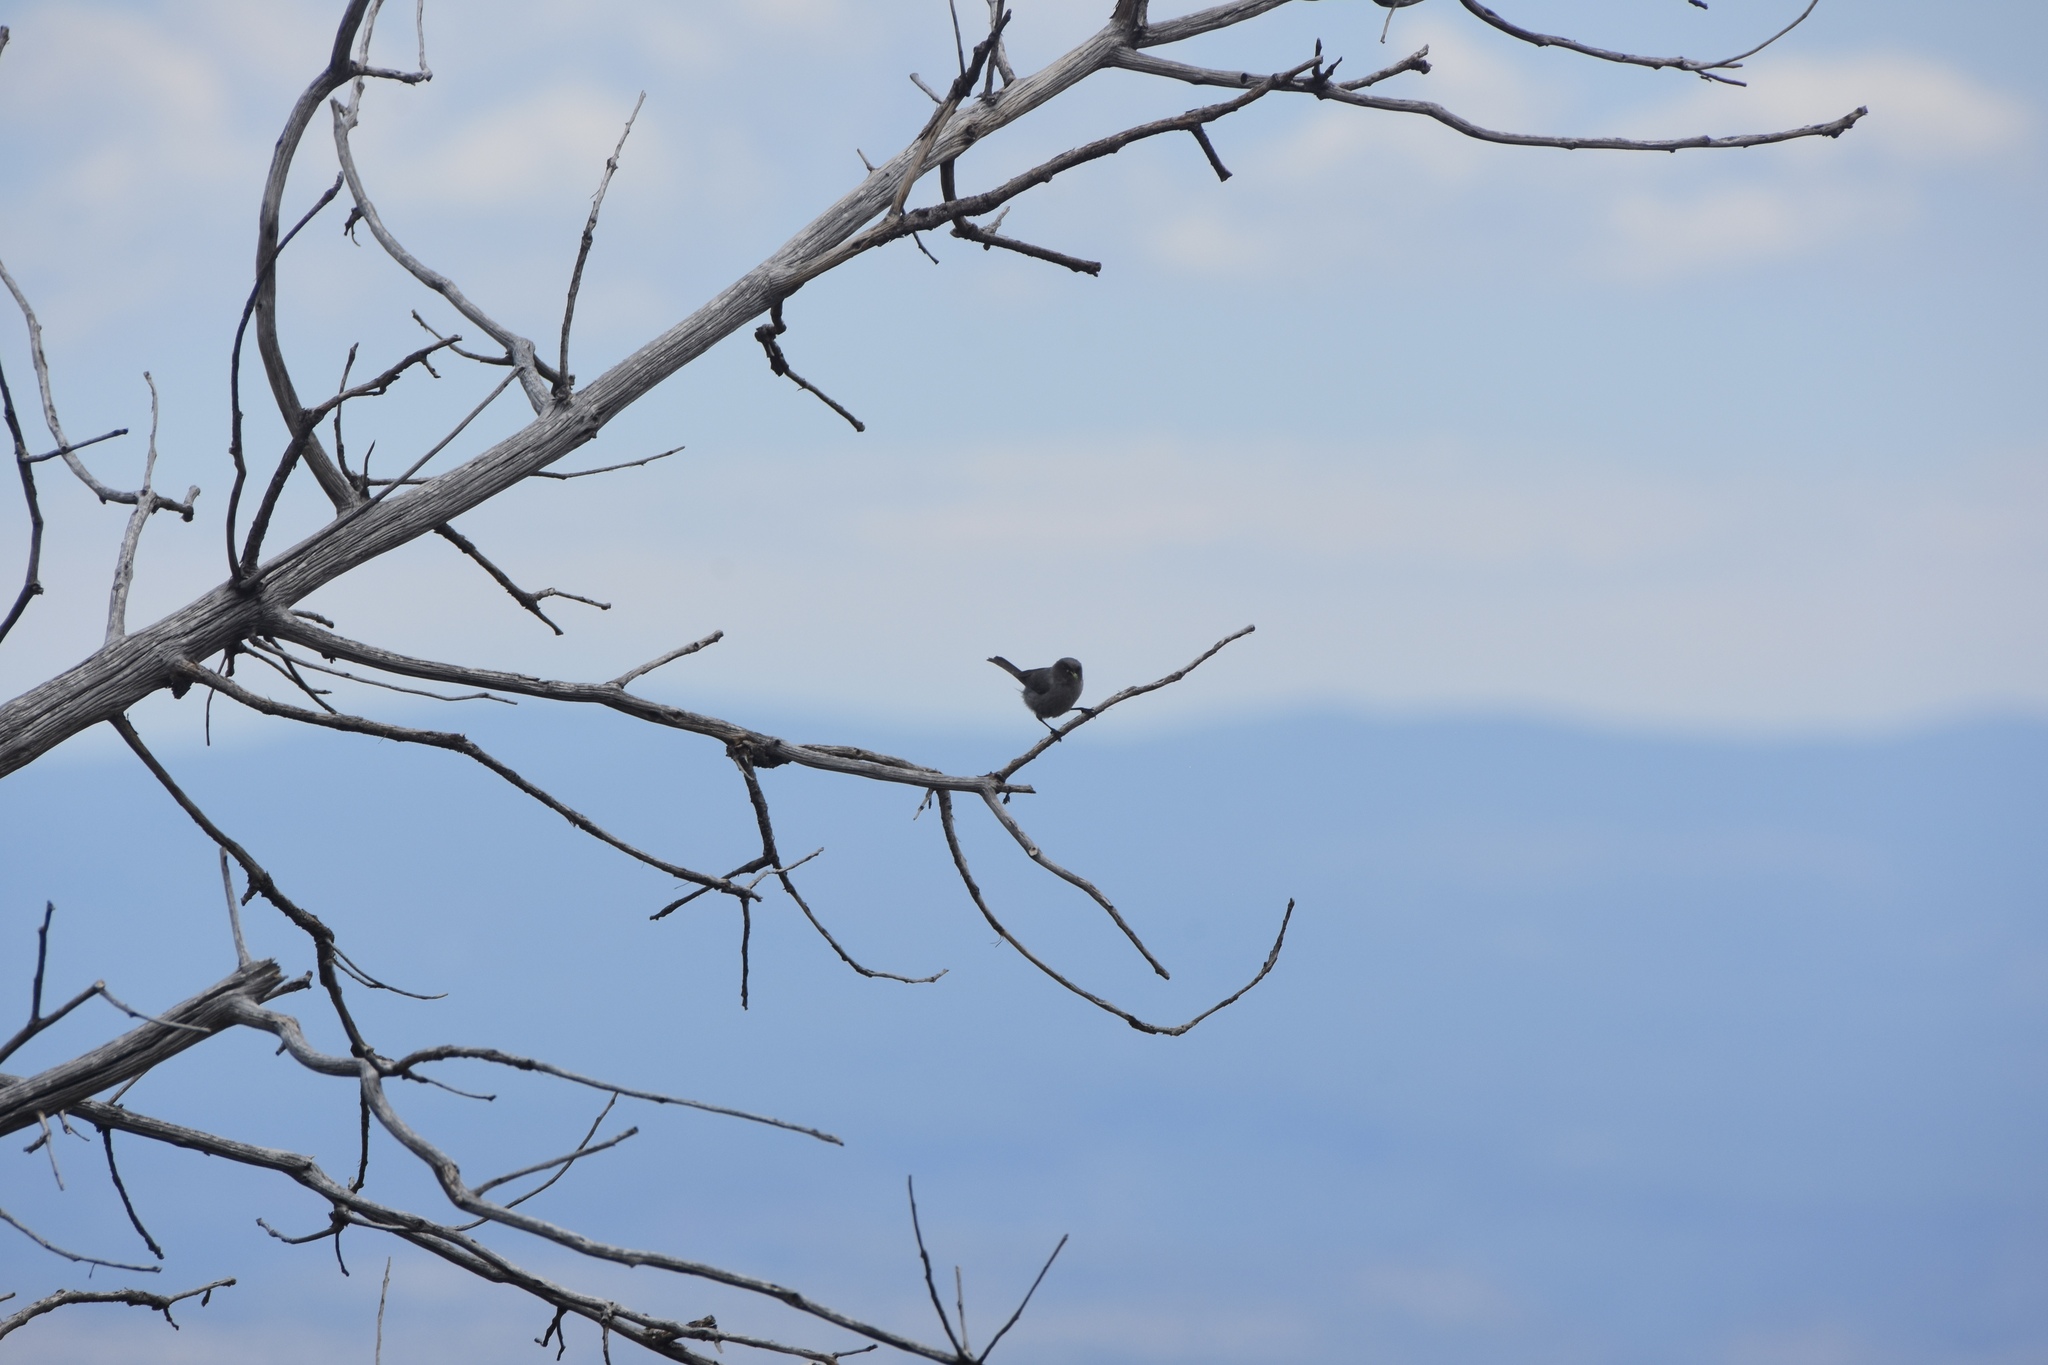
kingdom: Animalia
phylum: Chordata
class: Aves
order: Passeriformes
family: Aegithalidae
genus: Psaltriparus
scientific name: Psaltriparus minimus
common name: American bushtit
